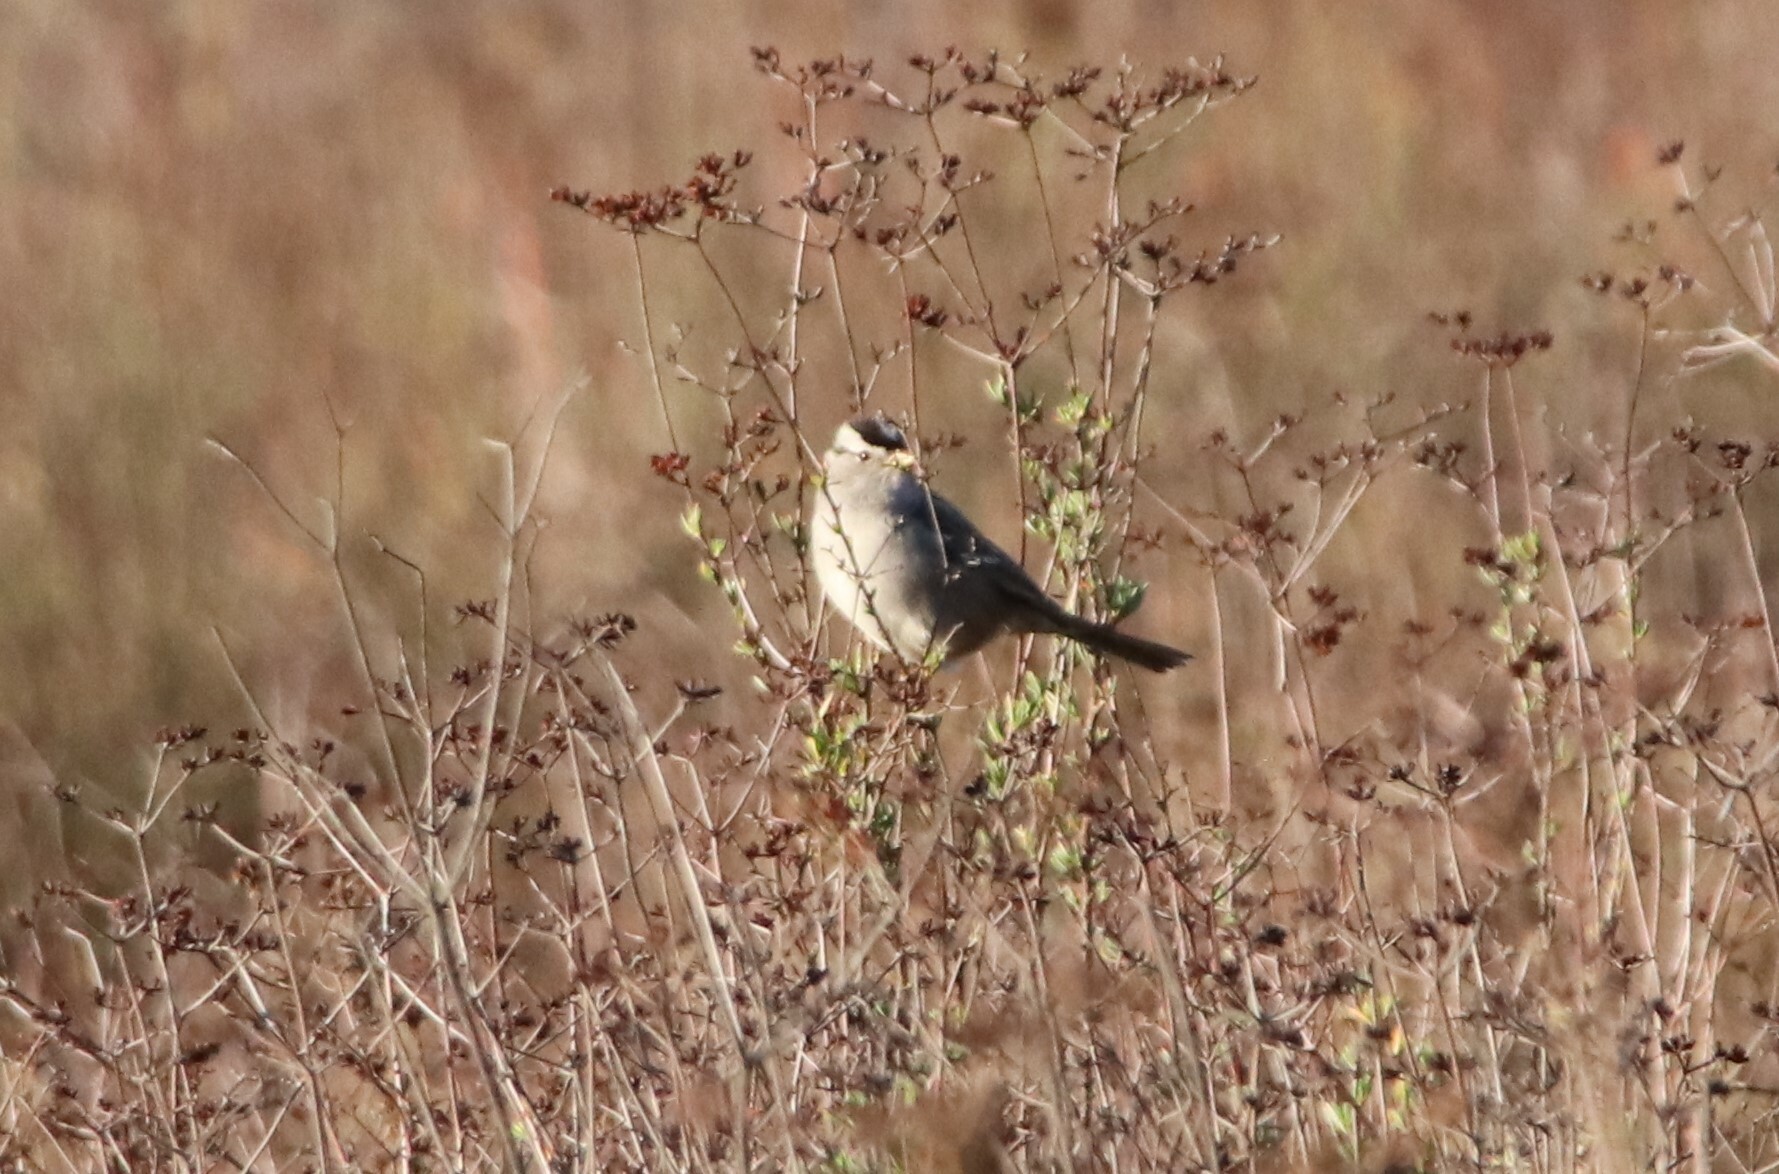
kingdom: Animalia
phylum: Chordata
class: Aves
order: Passeriformes
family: Passerellidae
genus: Zonotrichia
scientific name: Zonotrichia leucophrys
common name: White-crowned sparrow
